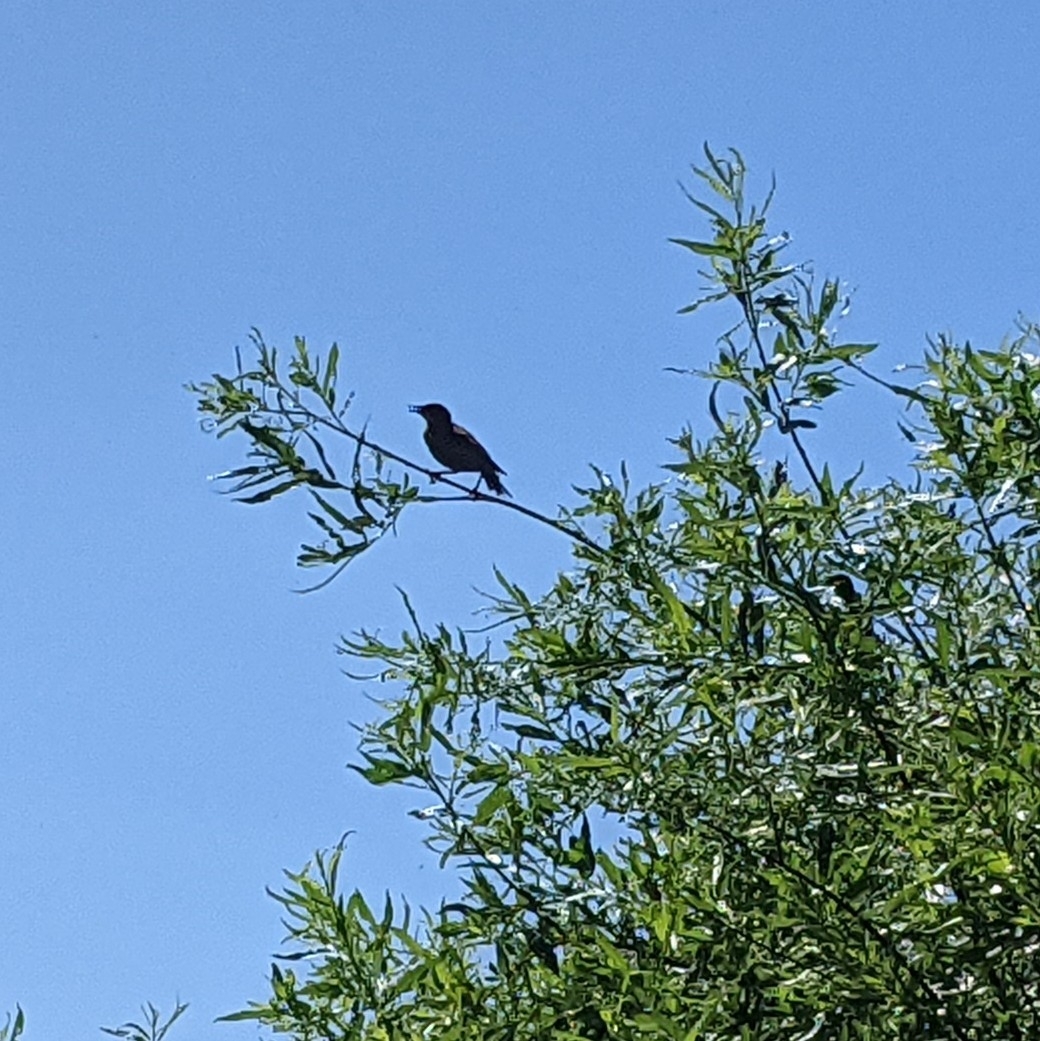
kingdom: Animalia
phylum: Chordata
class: Aves
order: Passeriformes
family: Sturnidae
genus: Sturnus
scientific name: Sturnus vulgaris
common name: Common starling
